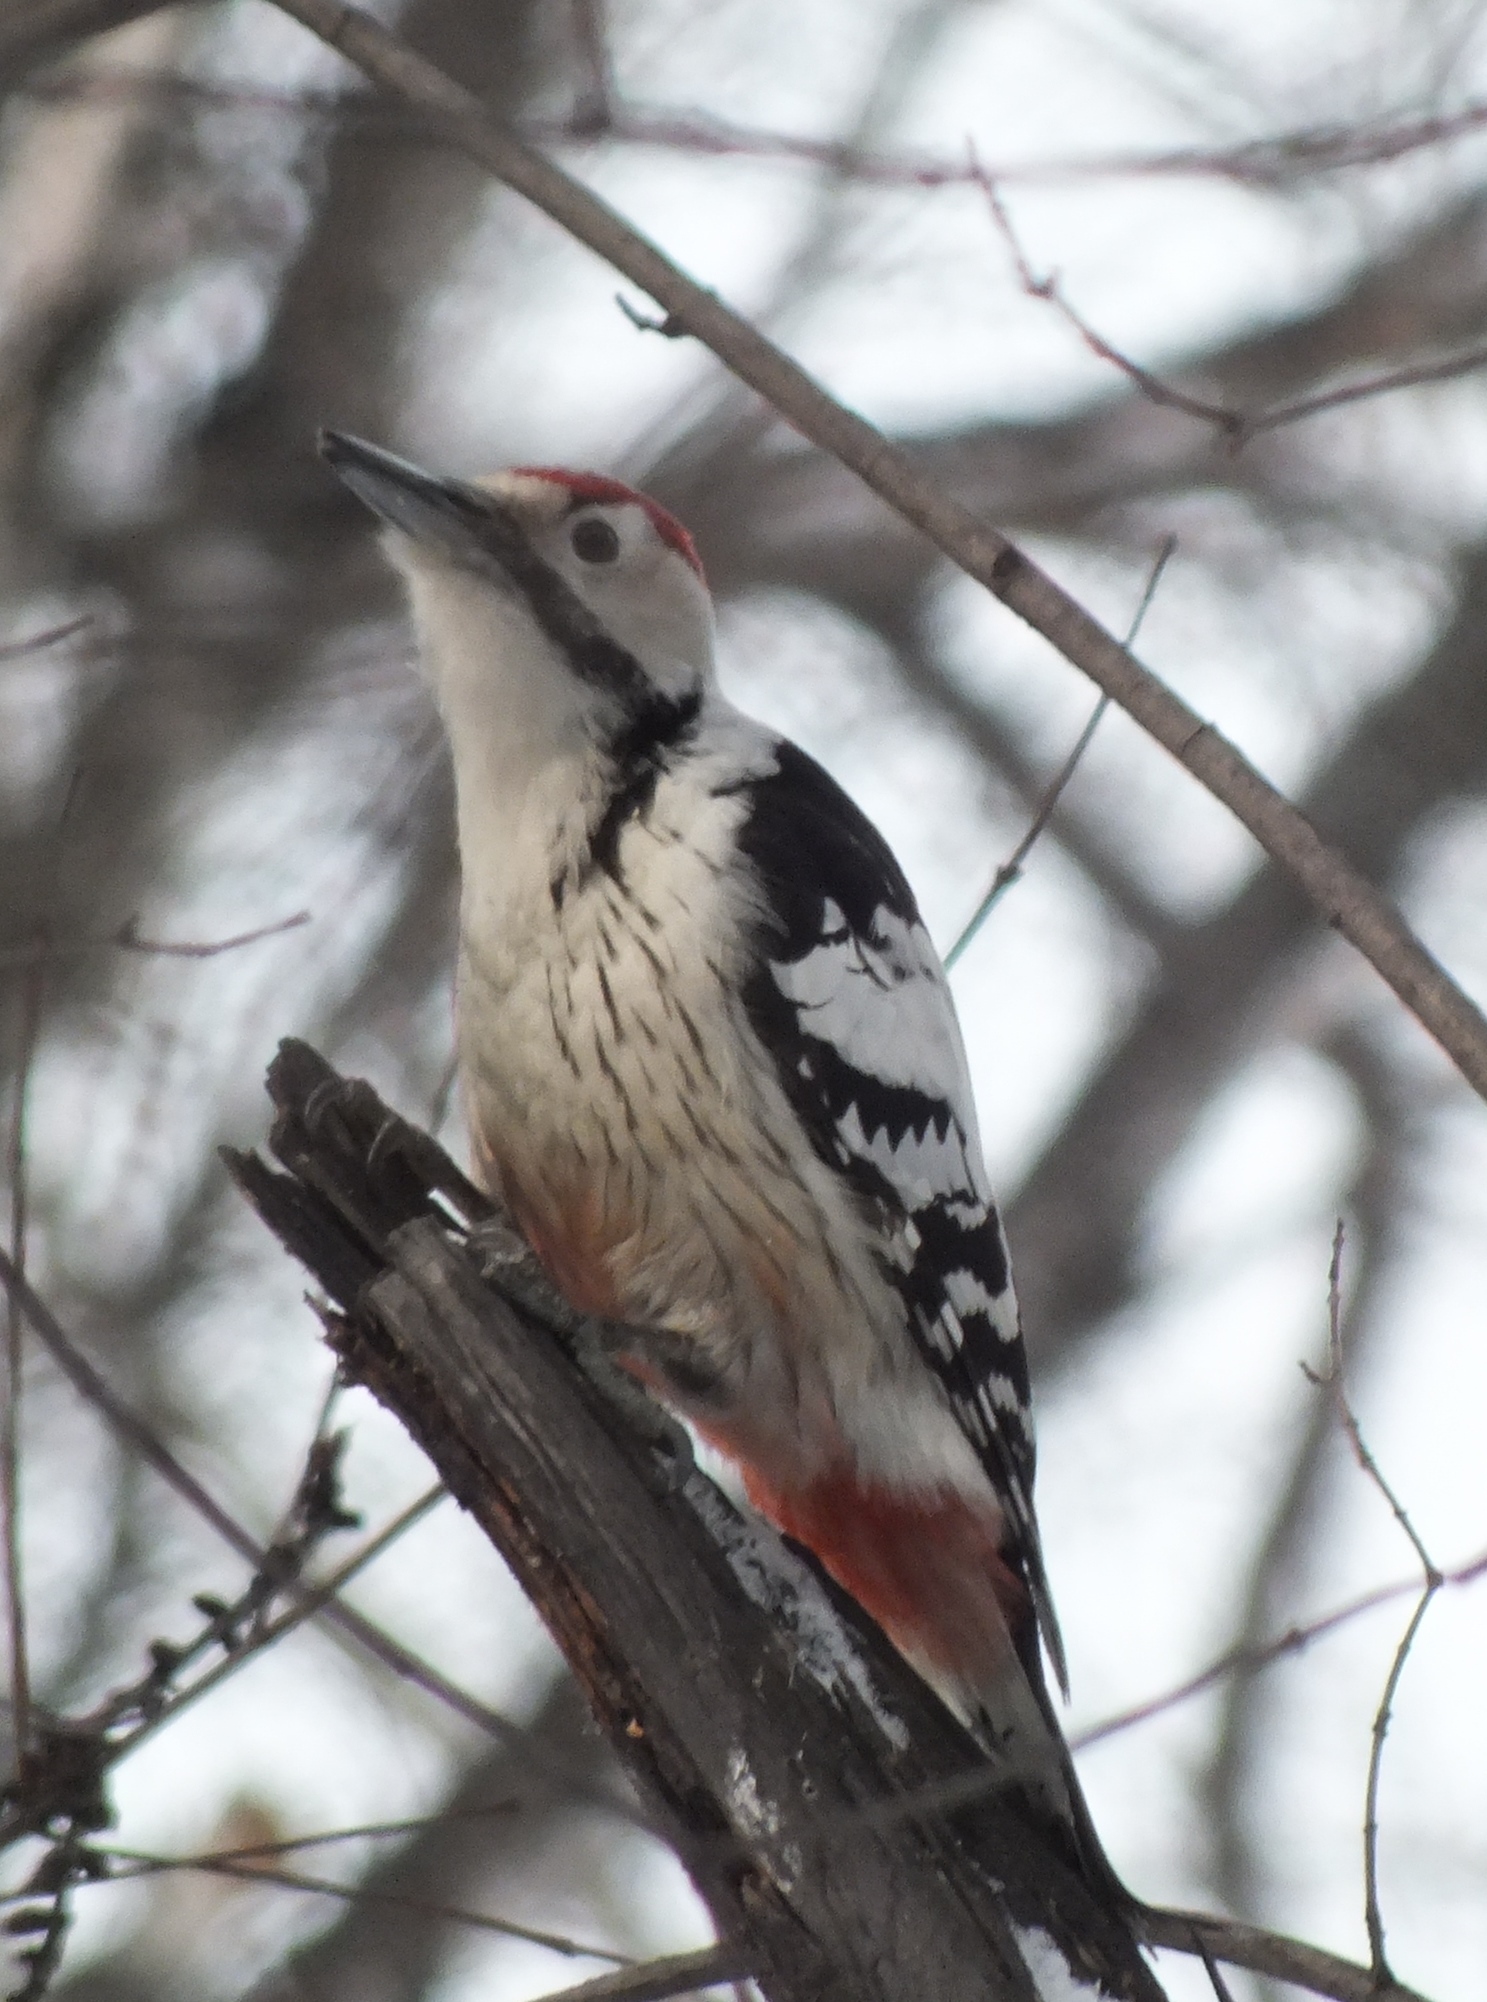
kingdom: Animalia
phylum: Chordata
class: Aves
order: Piciformes
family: Picidae
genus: Dendrocopos
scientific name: Dendrocopos leucotos
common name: White-backed woodpecker
